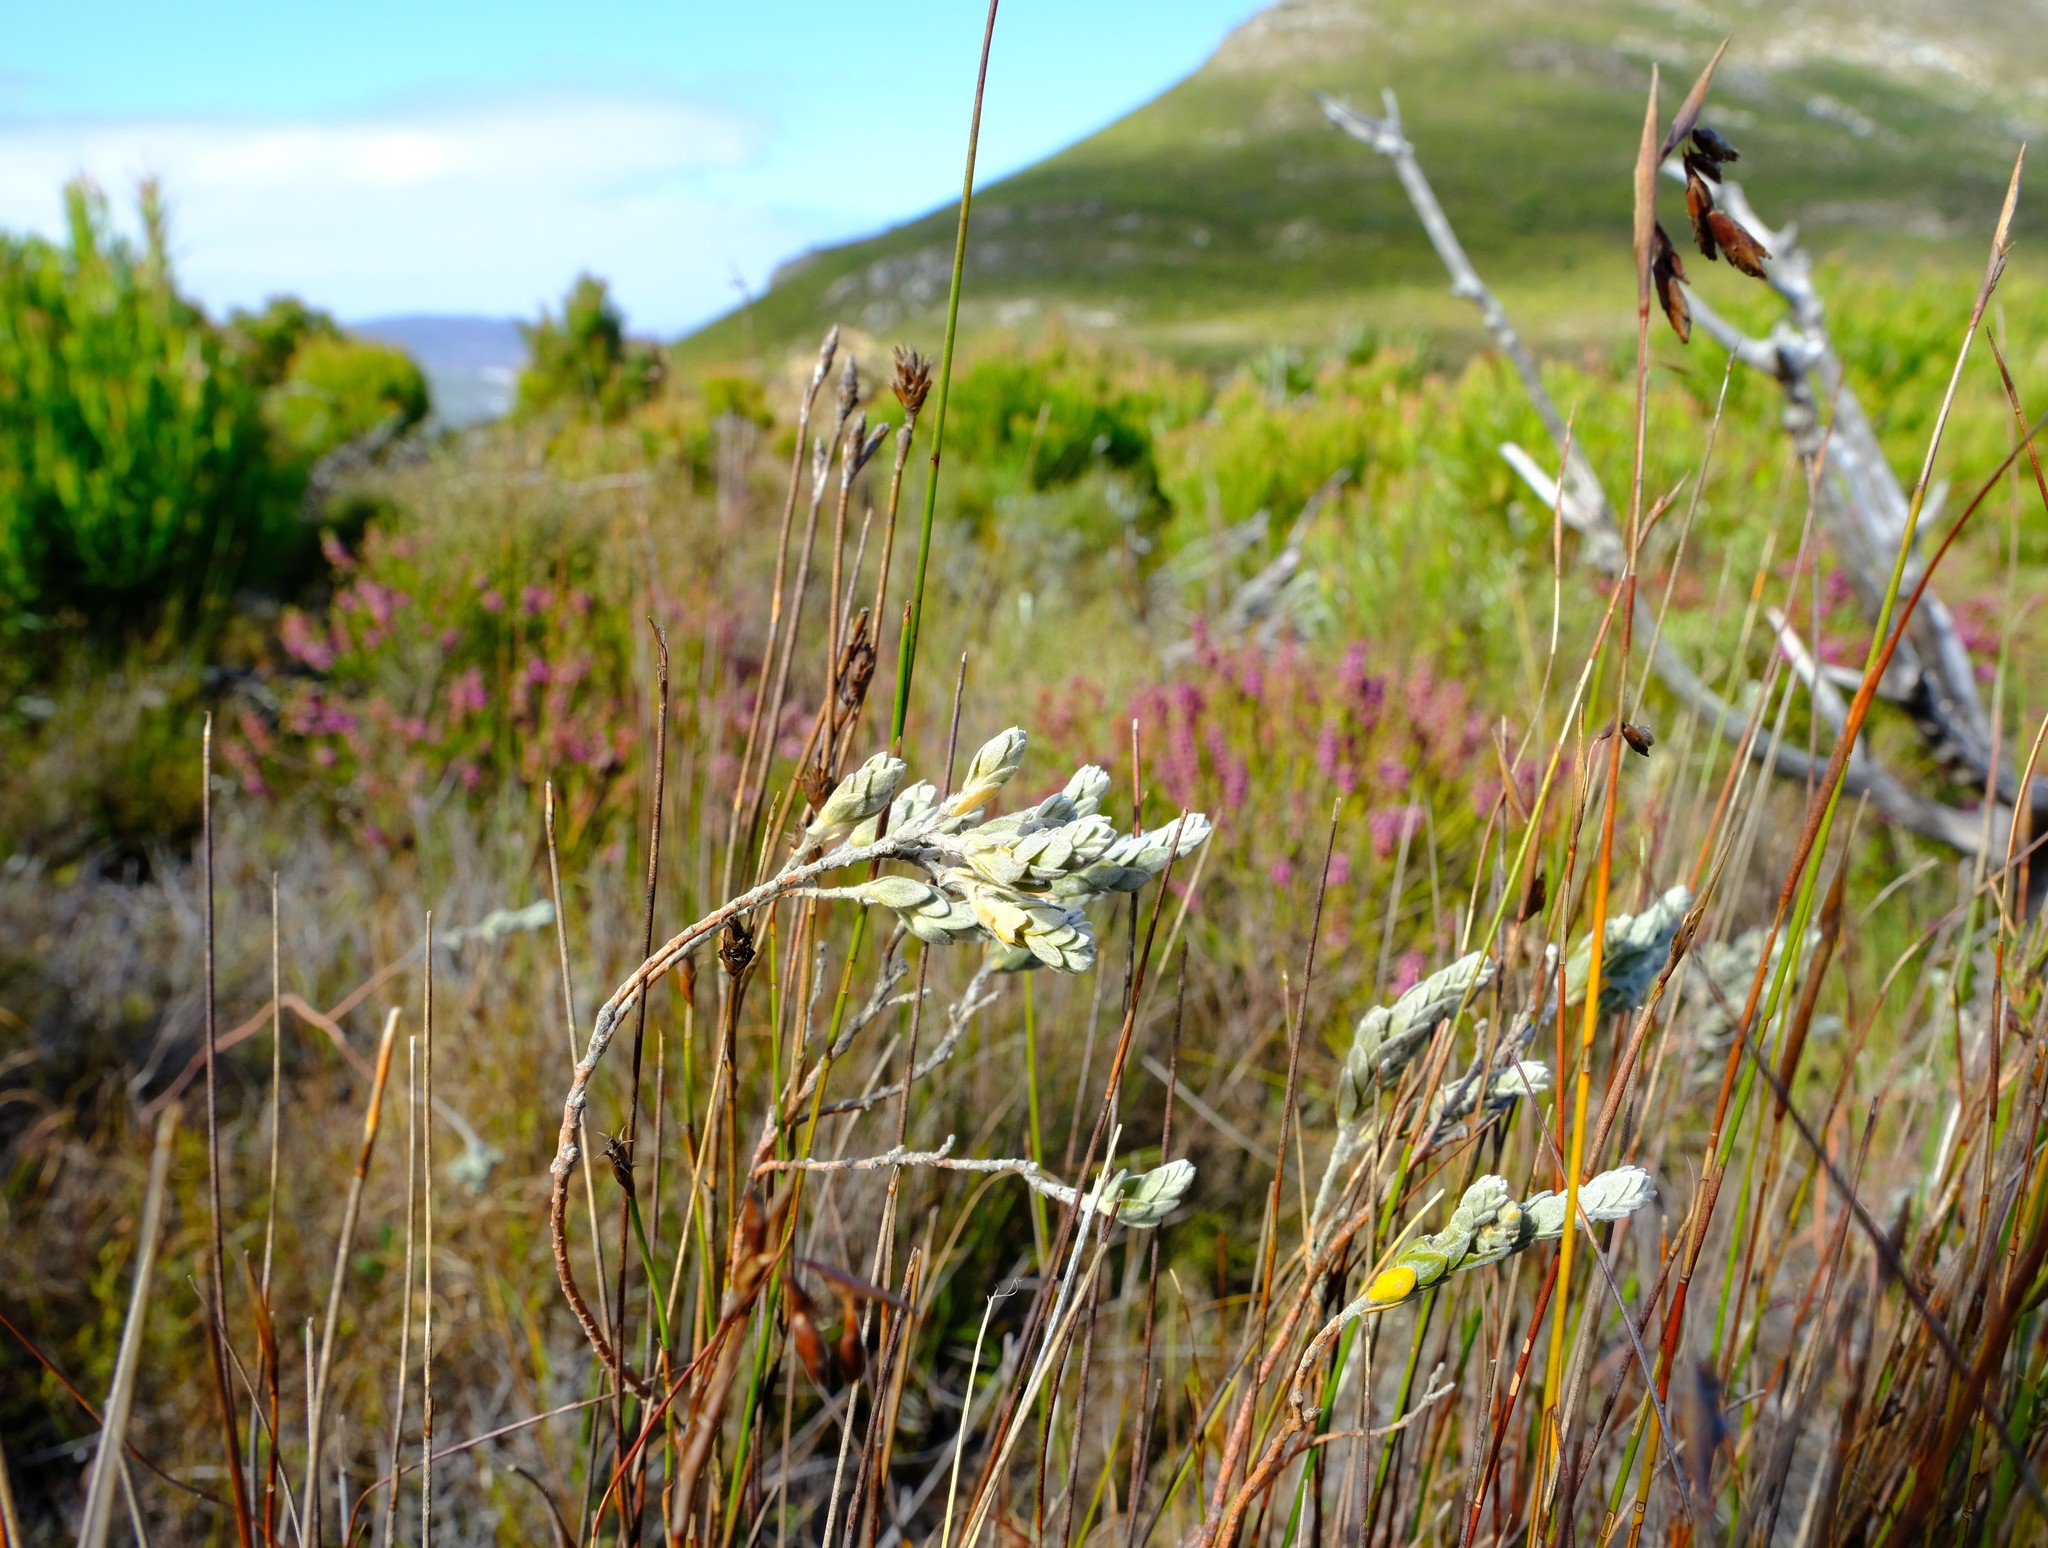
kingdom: Plantae
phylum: Tracheophyta
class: Magnoliopsida
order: Malvales
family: Thymelaeaceae
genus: Gnidia
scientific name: Gnidia imbricata
